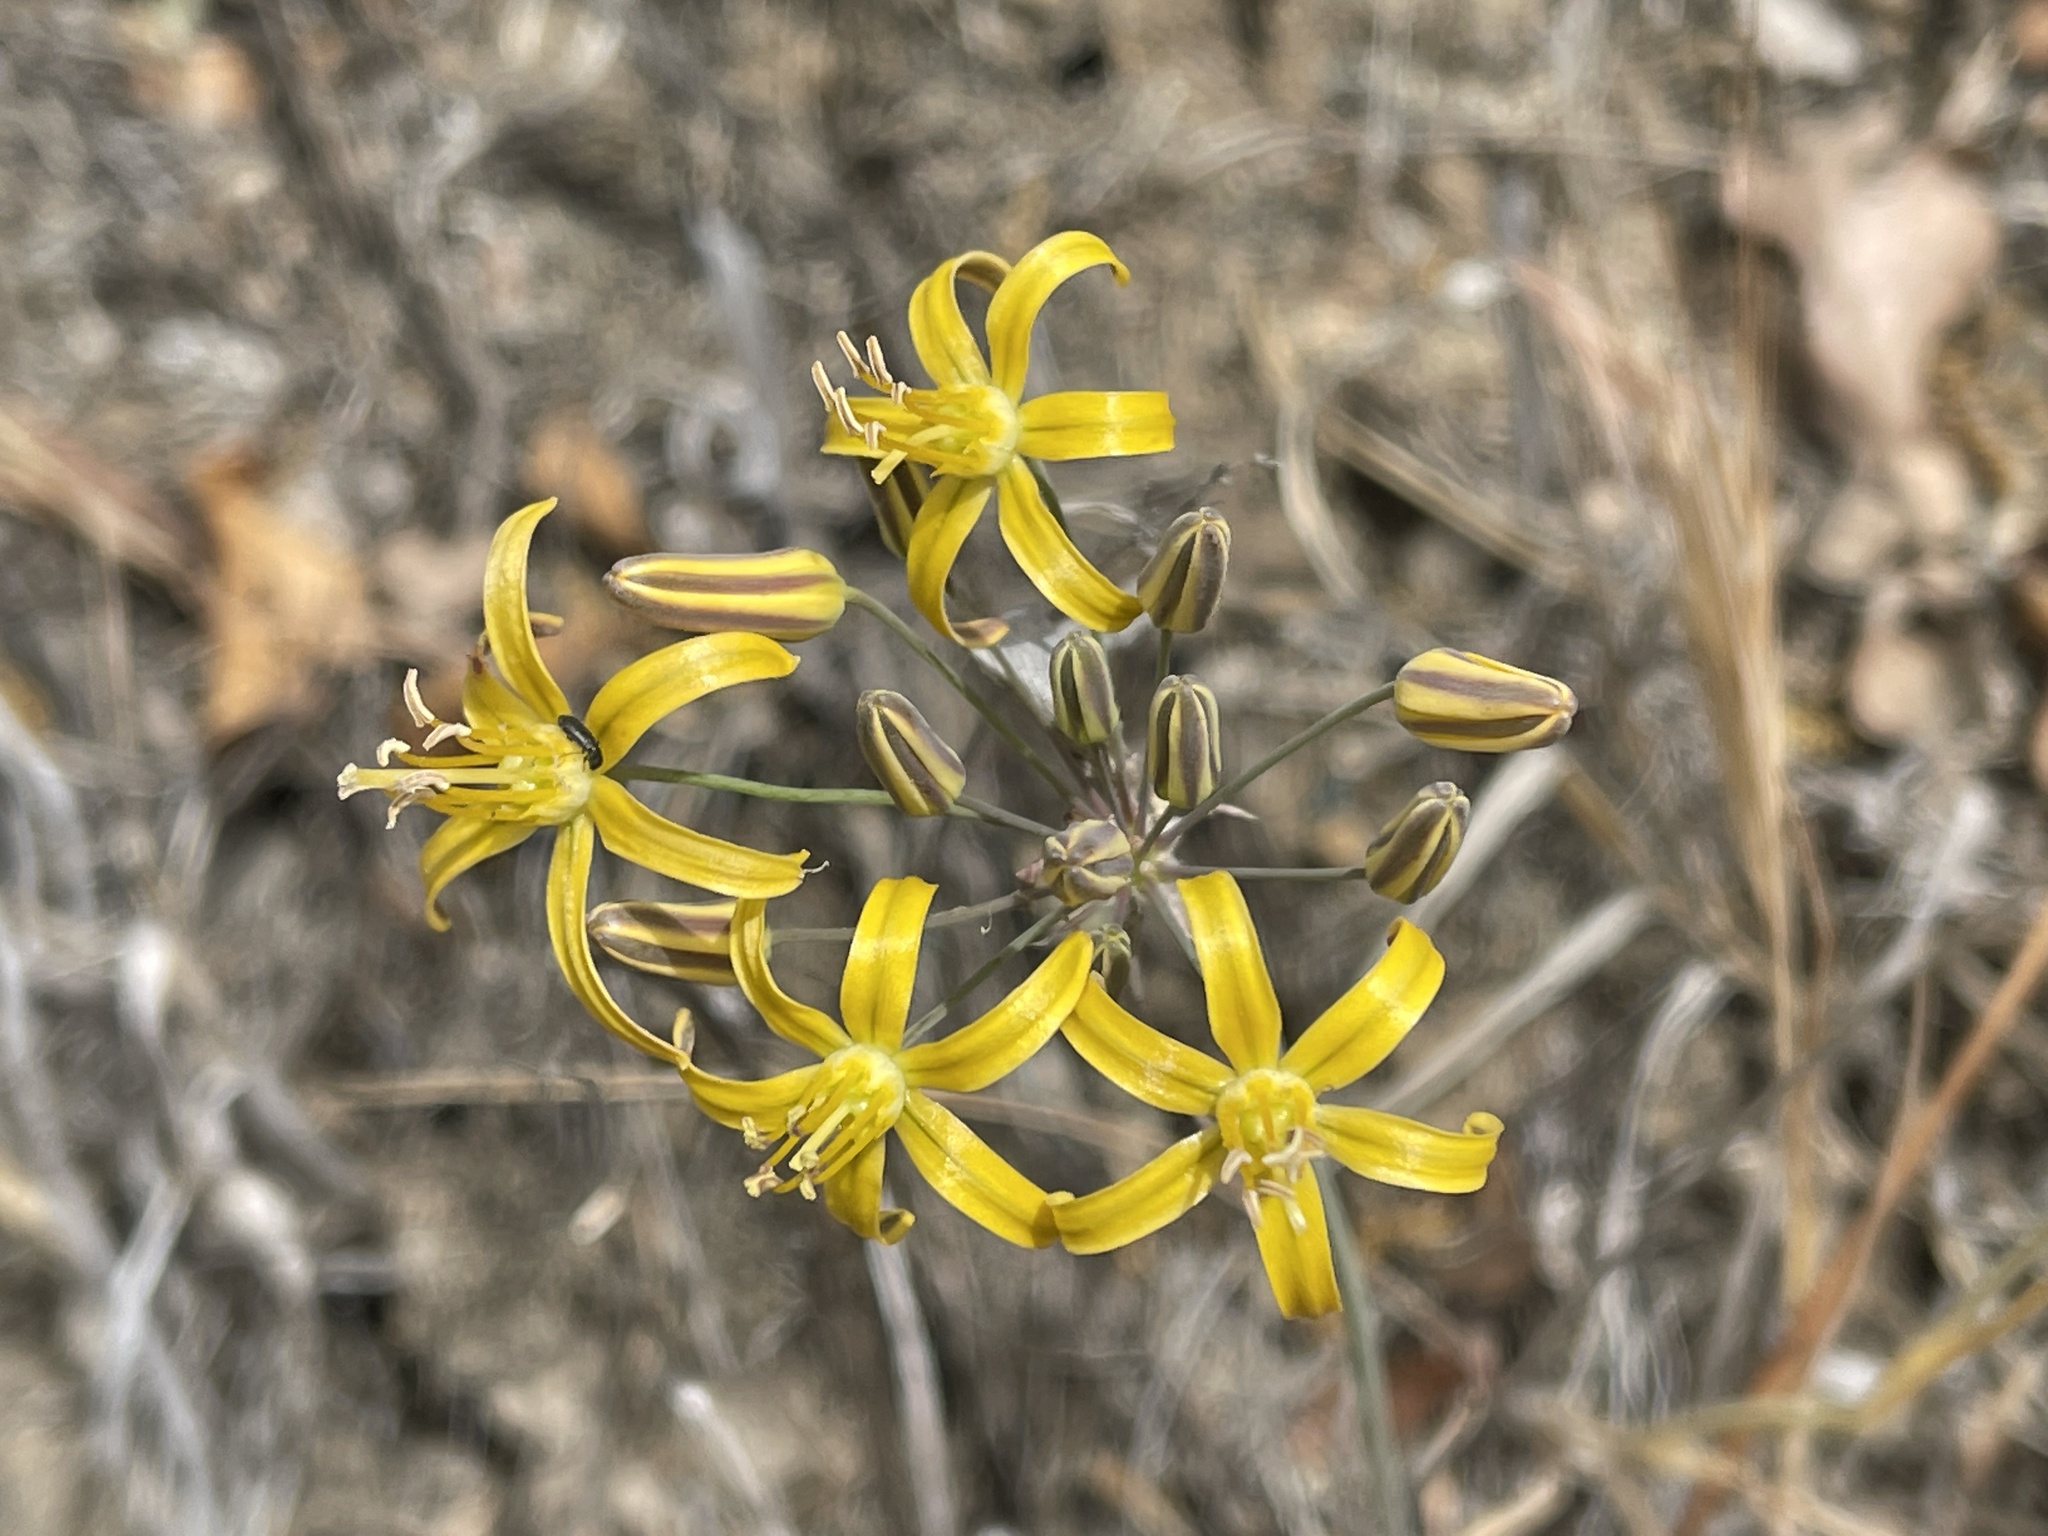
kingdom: Plantae
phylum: Tracheophyta
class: Liliopsida
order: Asparagales
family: Asparagaceae
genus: Bloomeria
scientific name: Bloomeria crocea
